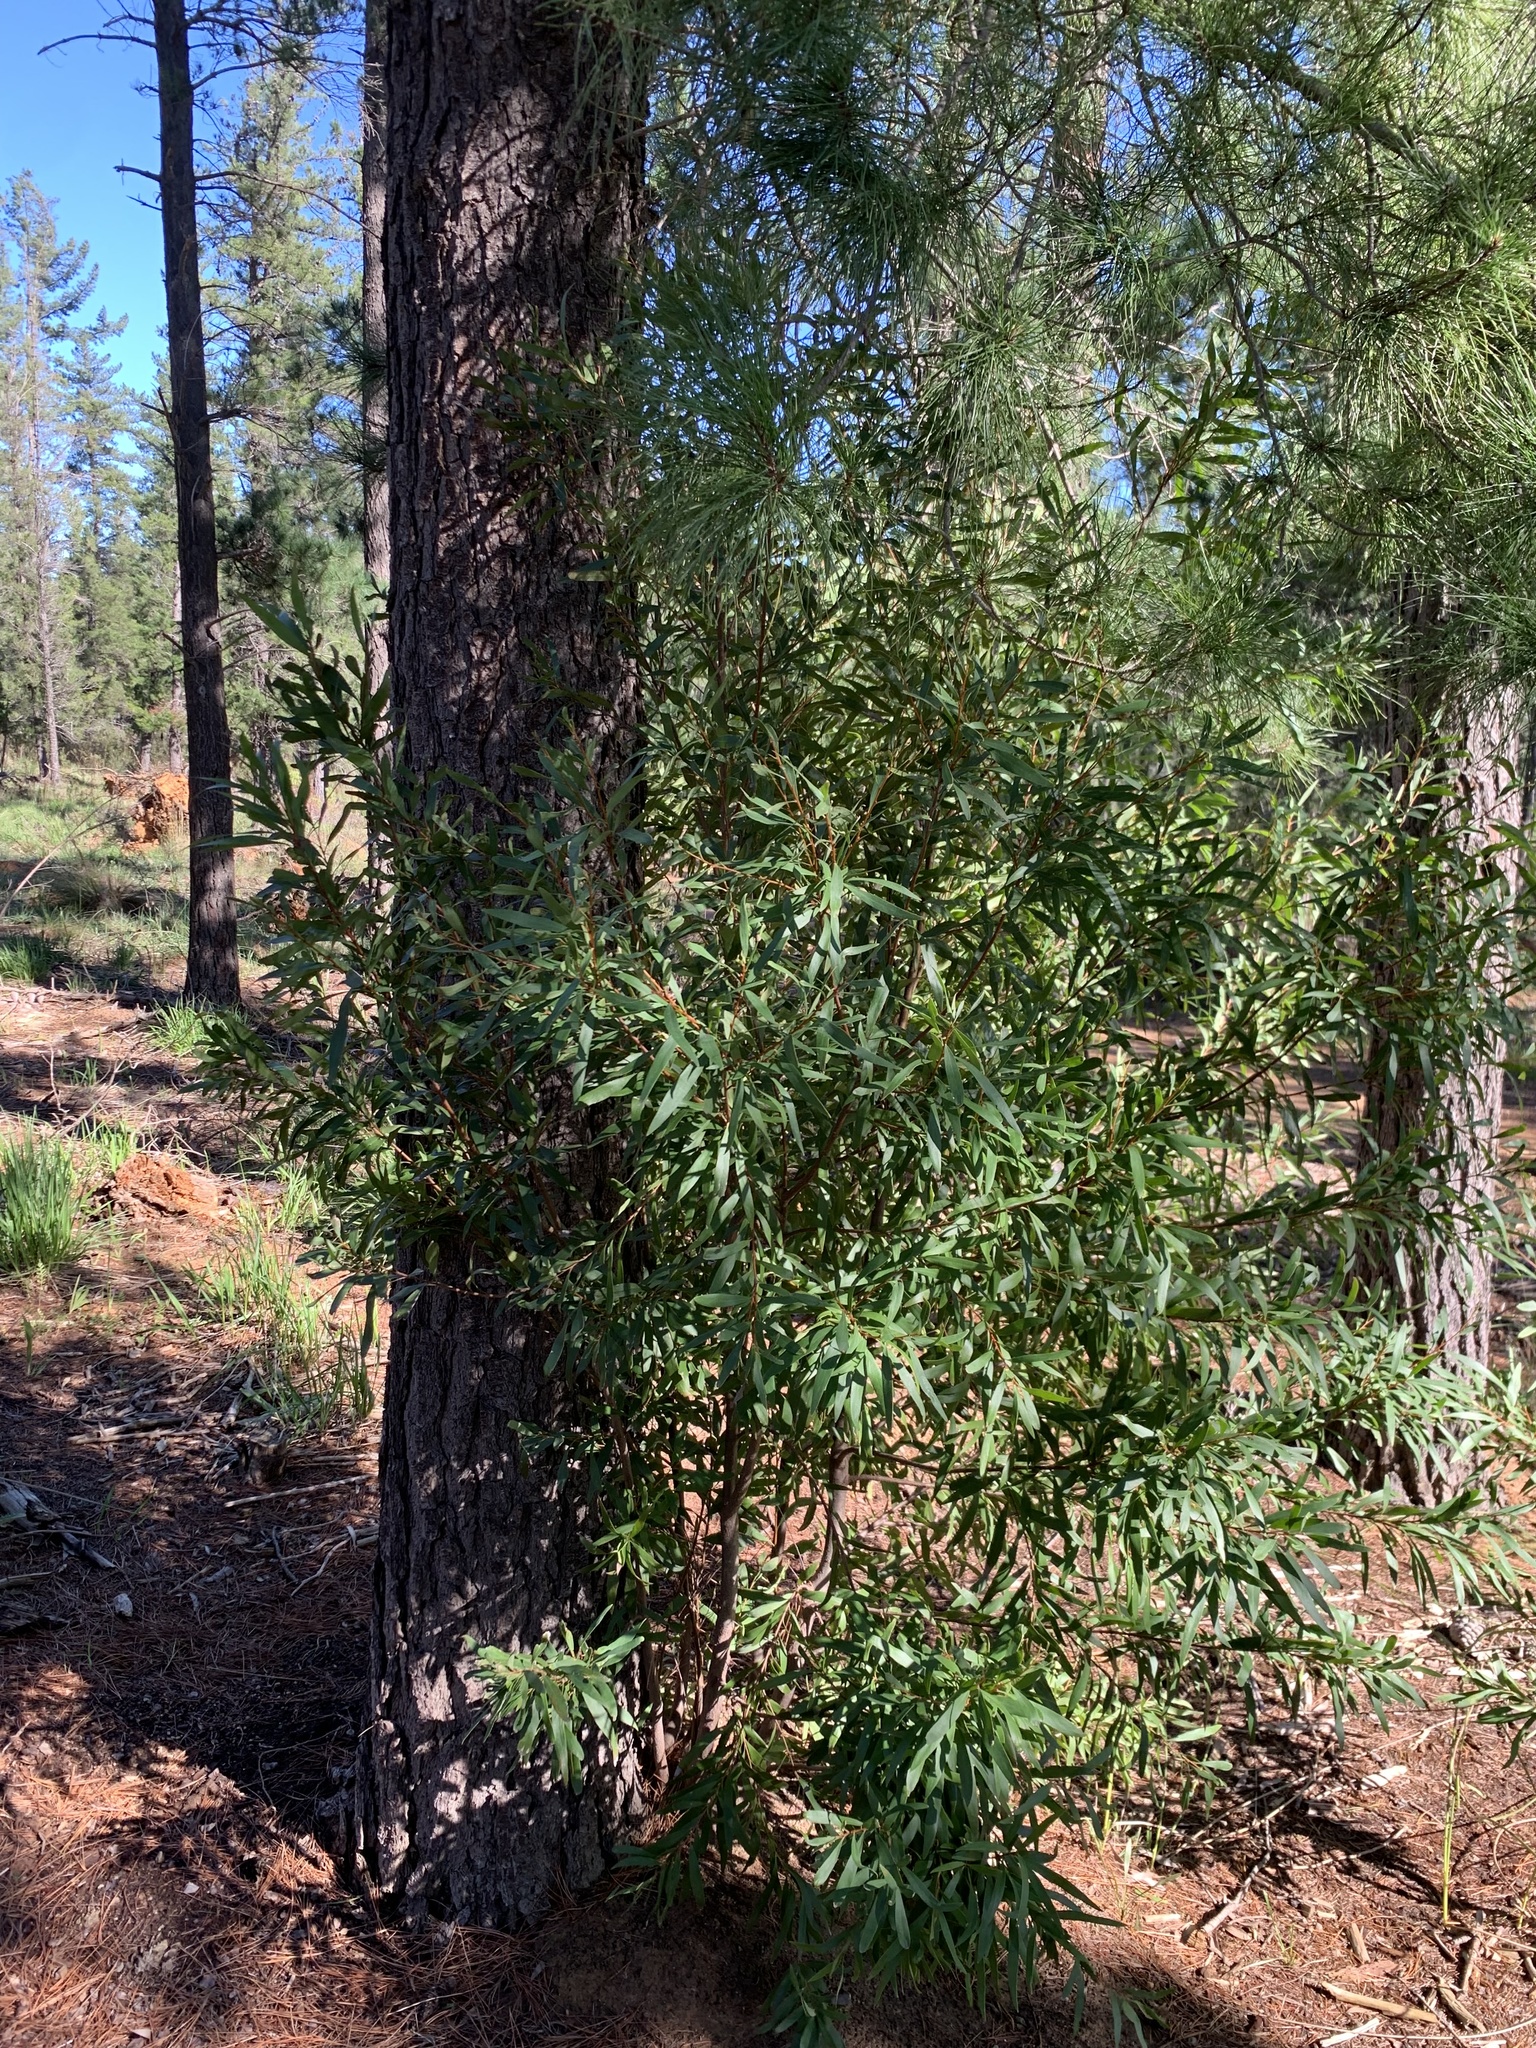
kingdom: Plantae
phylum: Tracheophyta
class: Magnoliopsida
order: Proteales
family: Proteaceae
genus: Hakea
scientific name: Hakea salicifolia
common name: Willow hakea
